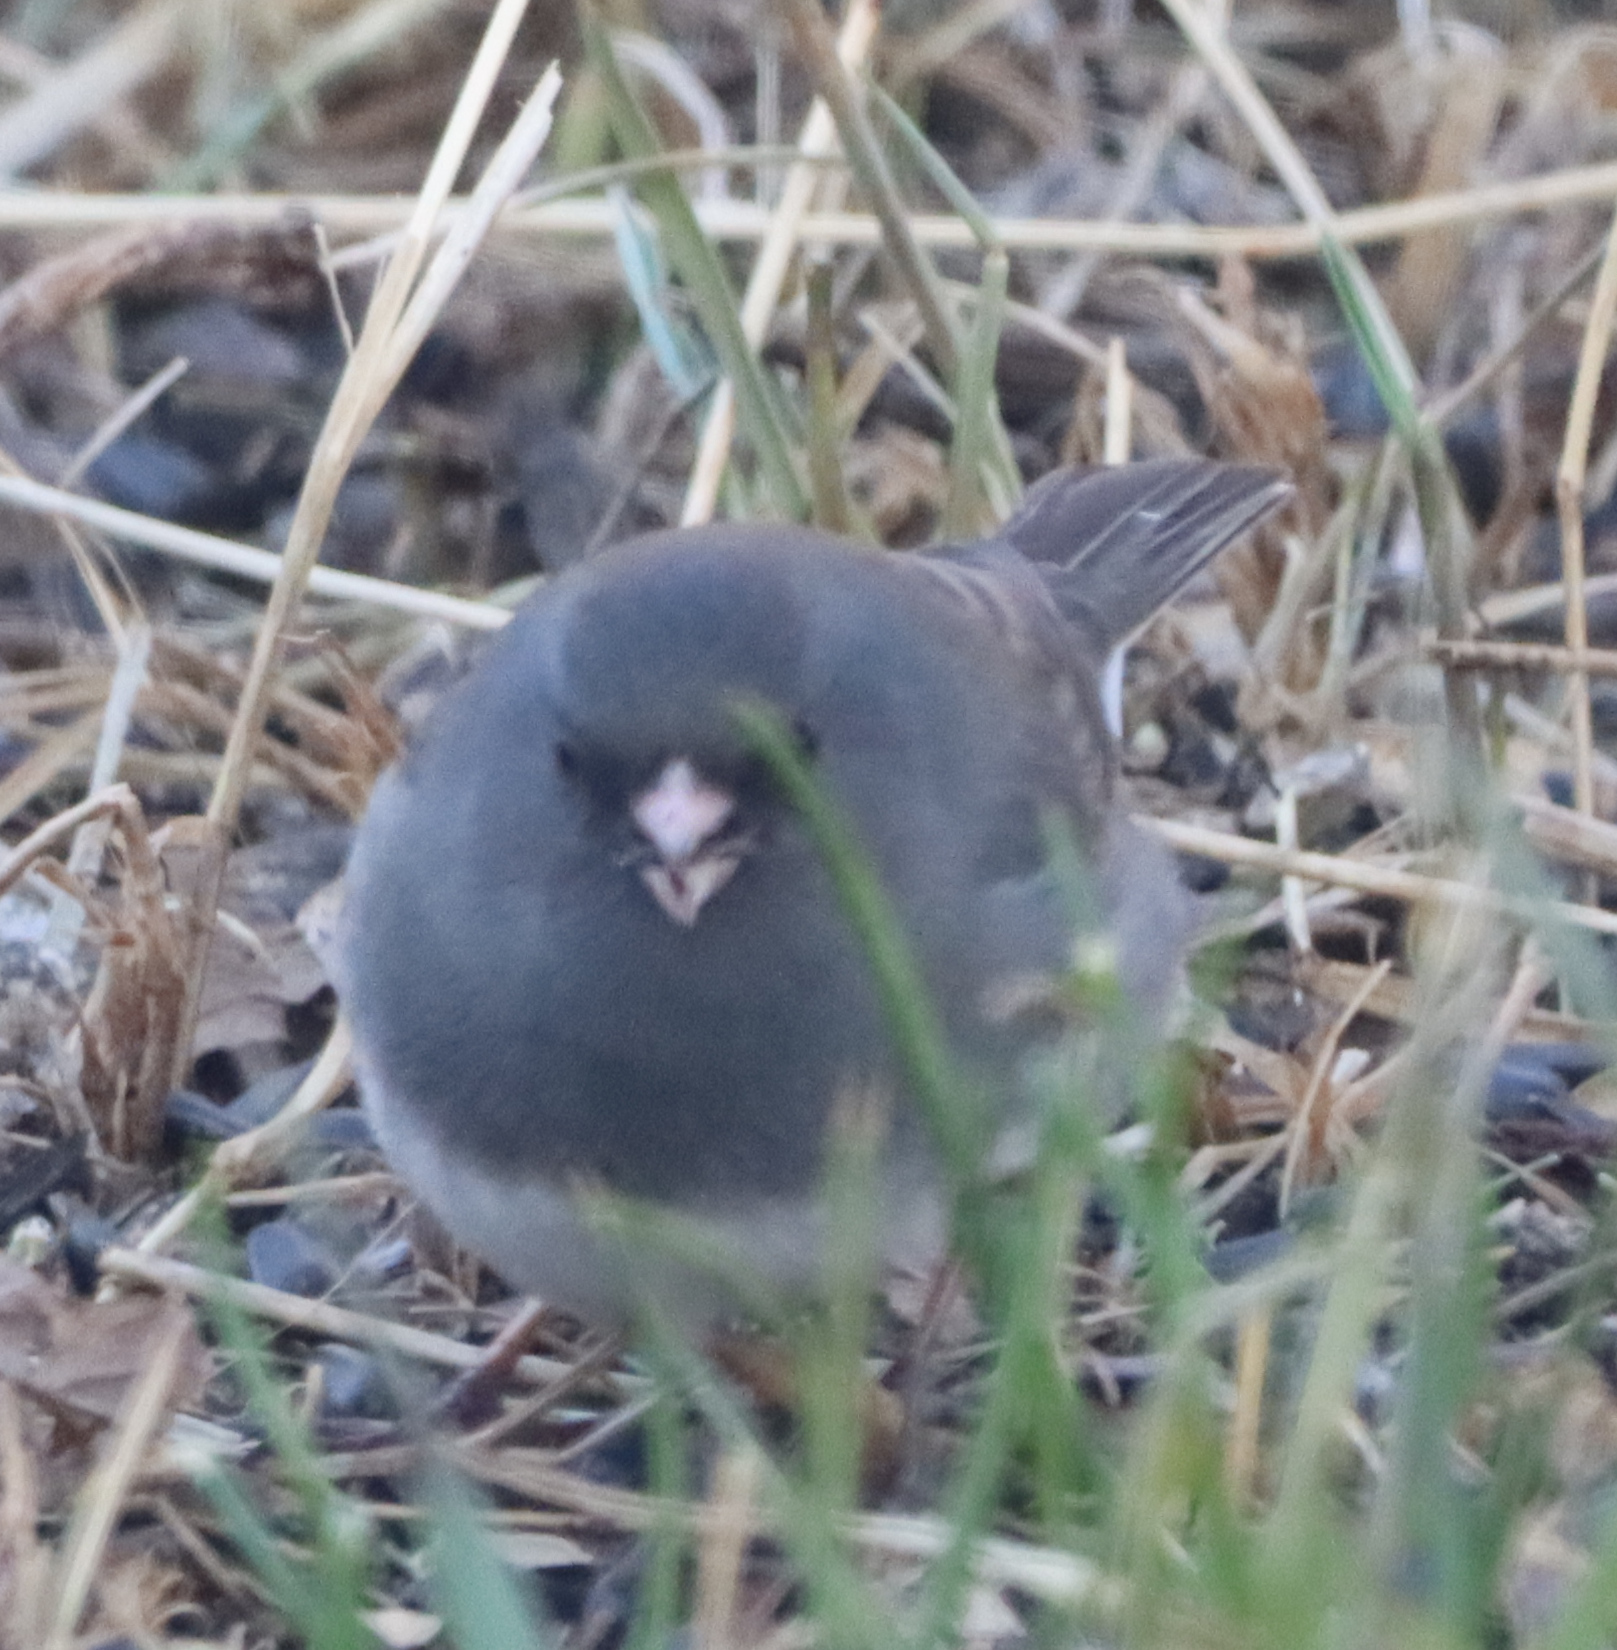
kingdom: Animalia
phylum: Chordata
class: Aves
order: Passeriformes
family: Passerellidae
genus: Junco
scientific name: Junco hyemalis
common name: Dark-eyed junco
